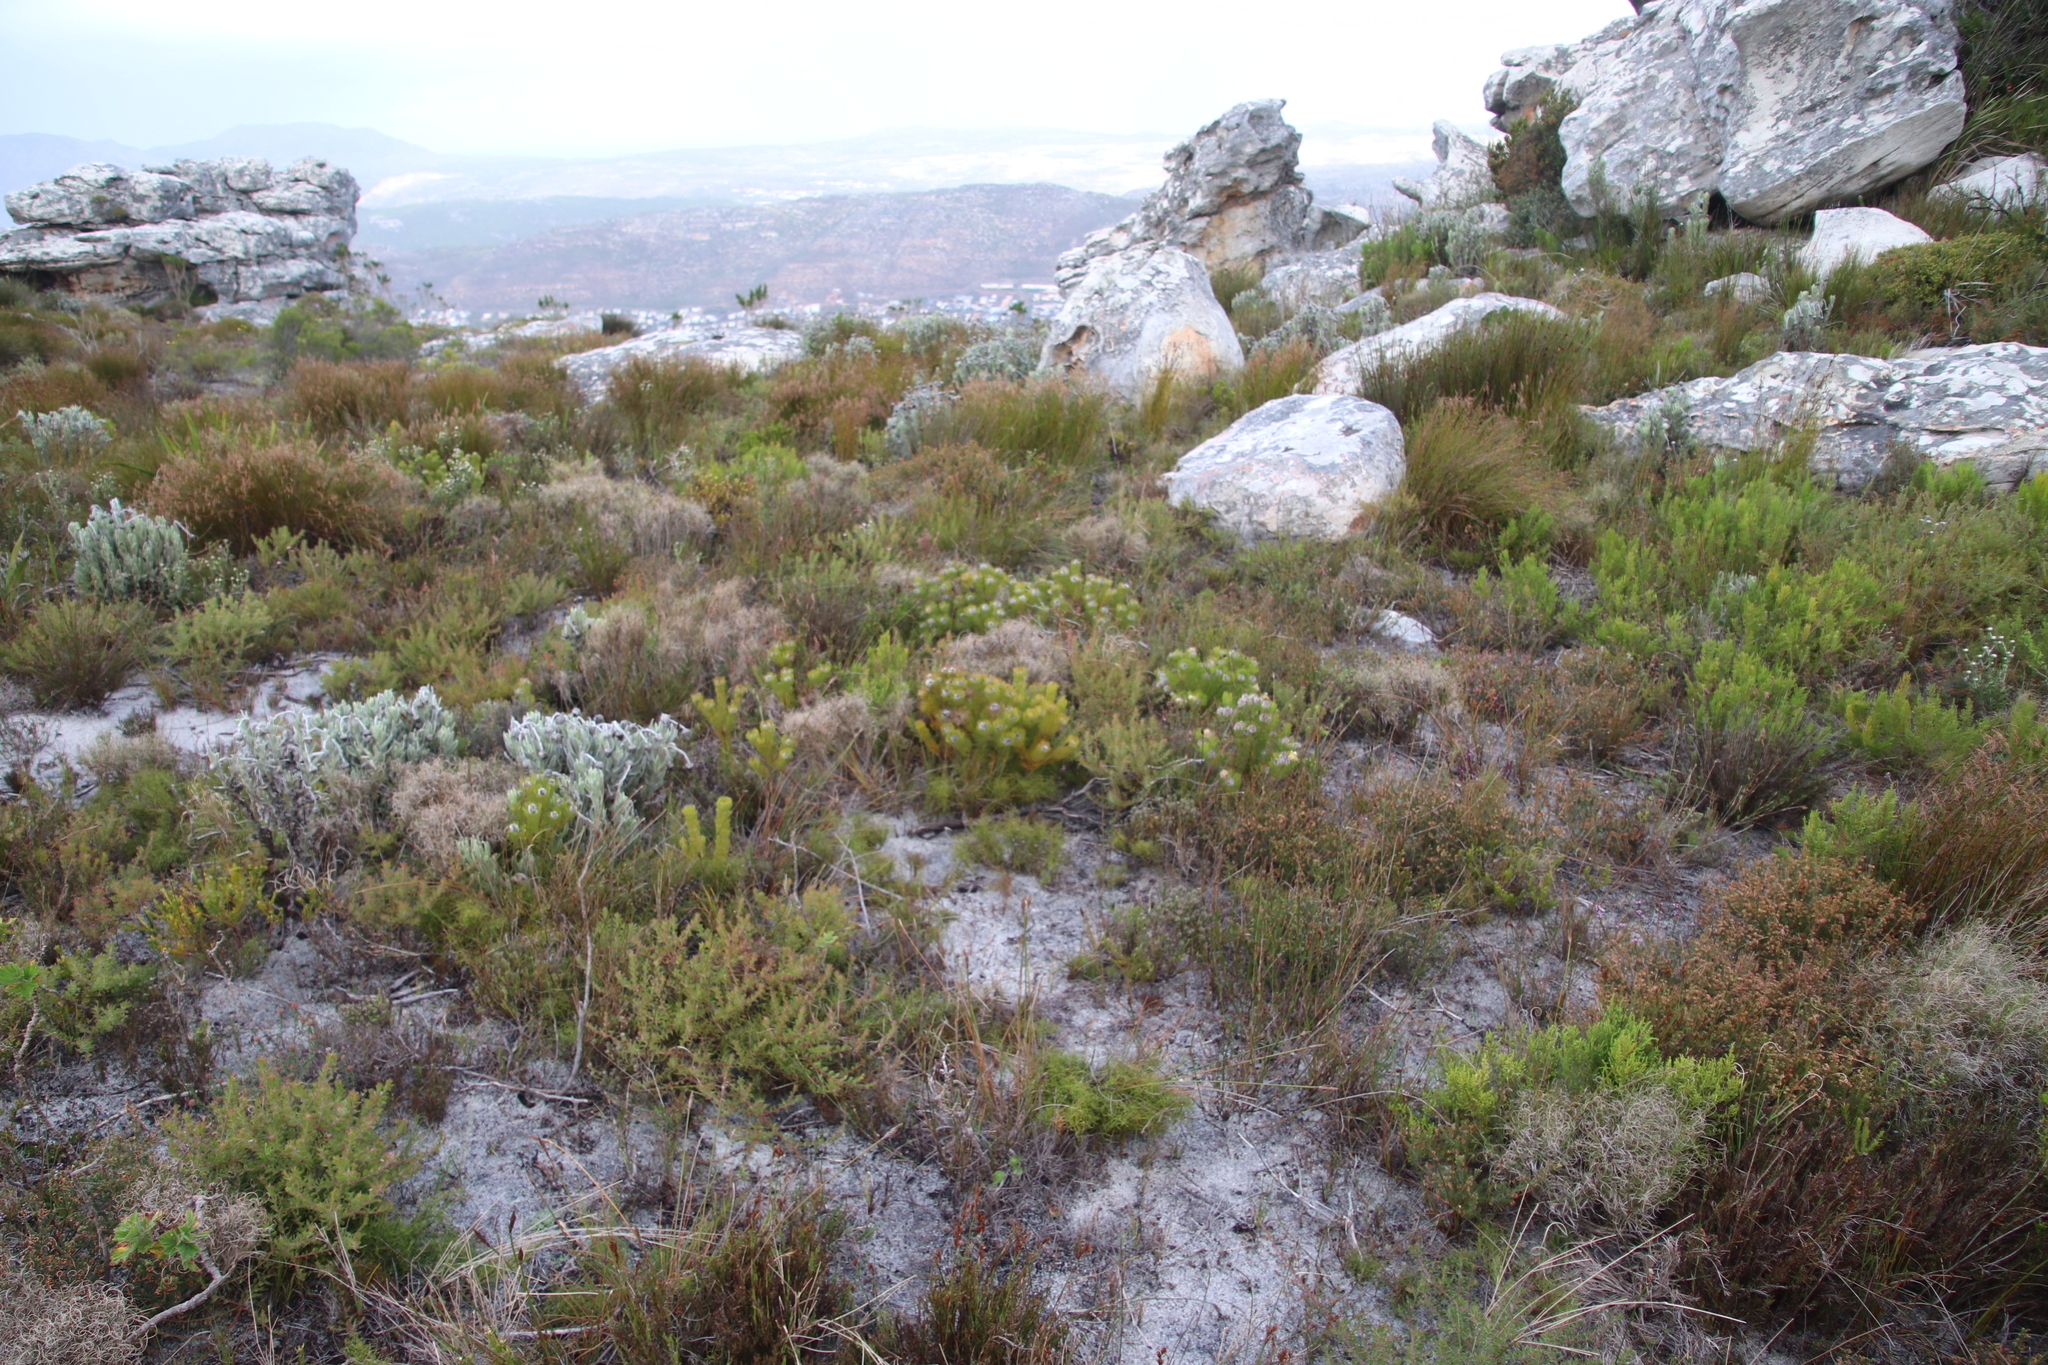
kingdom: Plantae
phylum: Tracheophyta
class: Magnoliopsida
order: Proteales
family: Proteaceae
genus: Serruria
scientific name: Serruria villosa
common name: Golden spiderhead
